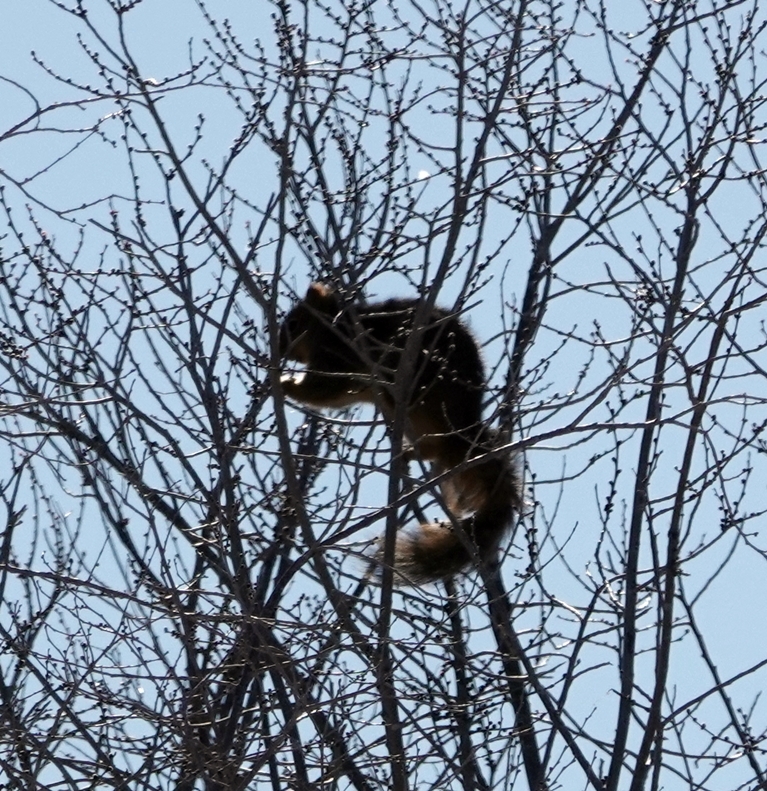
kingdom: Animalia
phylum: Chordata
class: Mammalia
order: Rodentia
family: Sciuridae
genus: Sciurus
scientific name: Sciurus niger
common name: Fox squirrel
